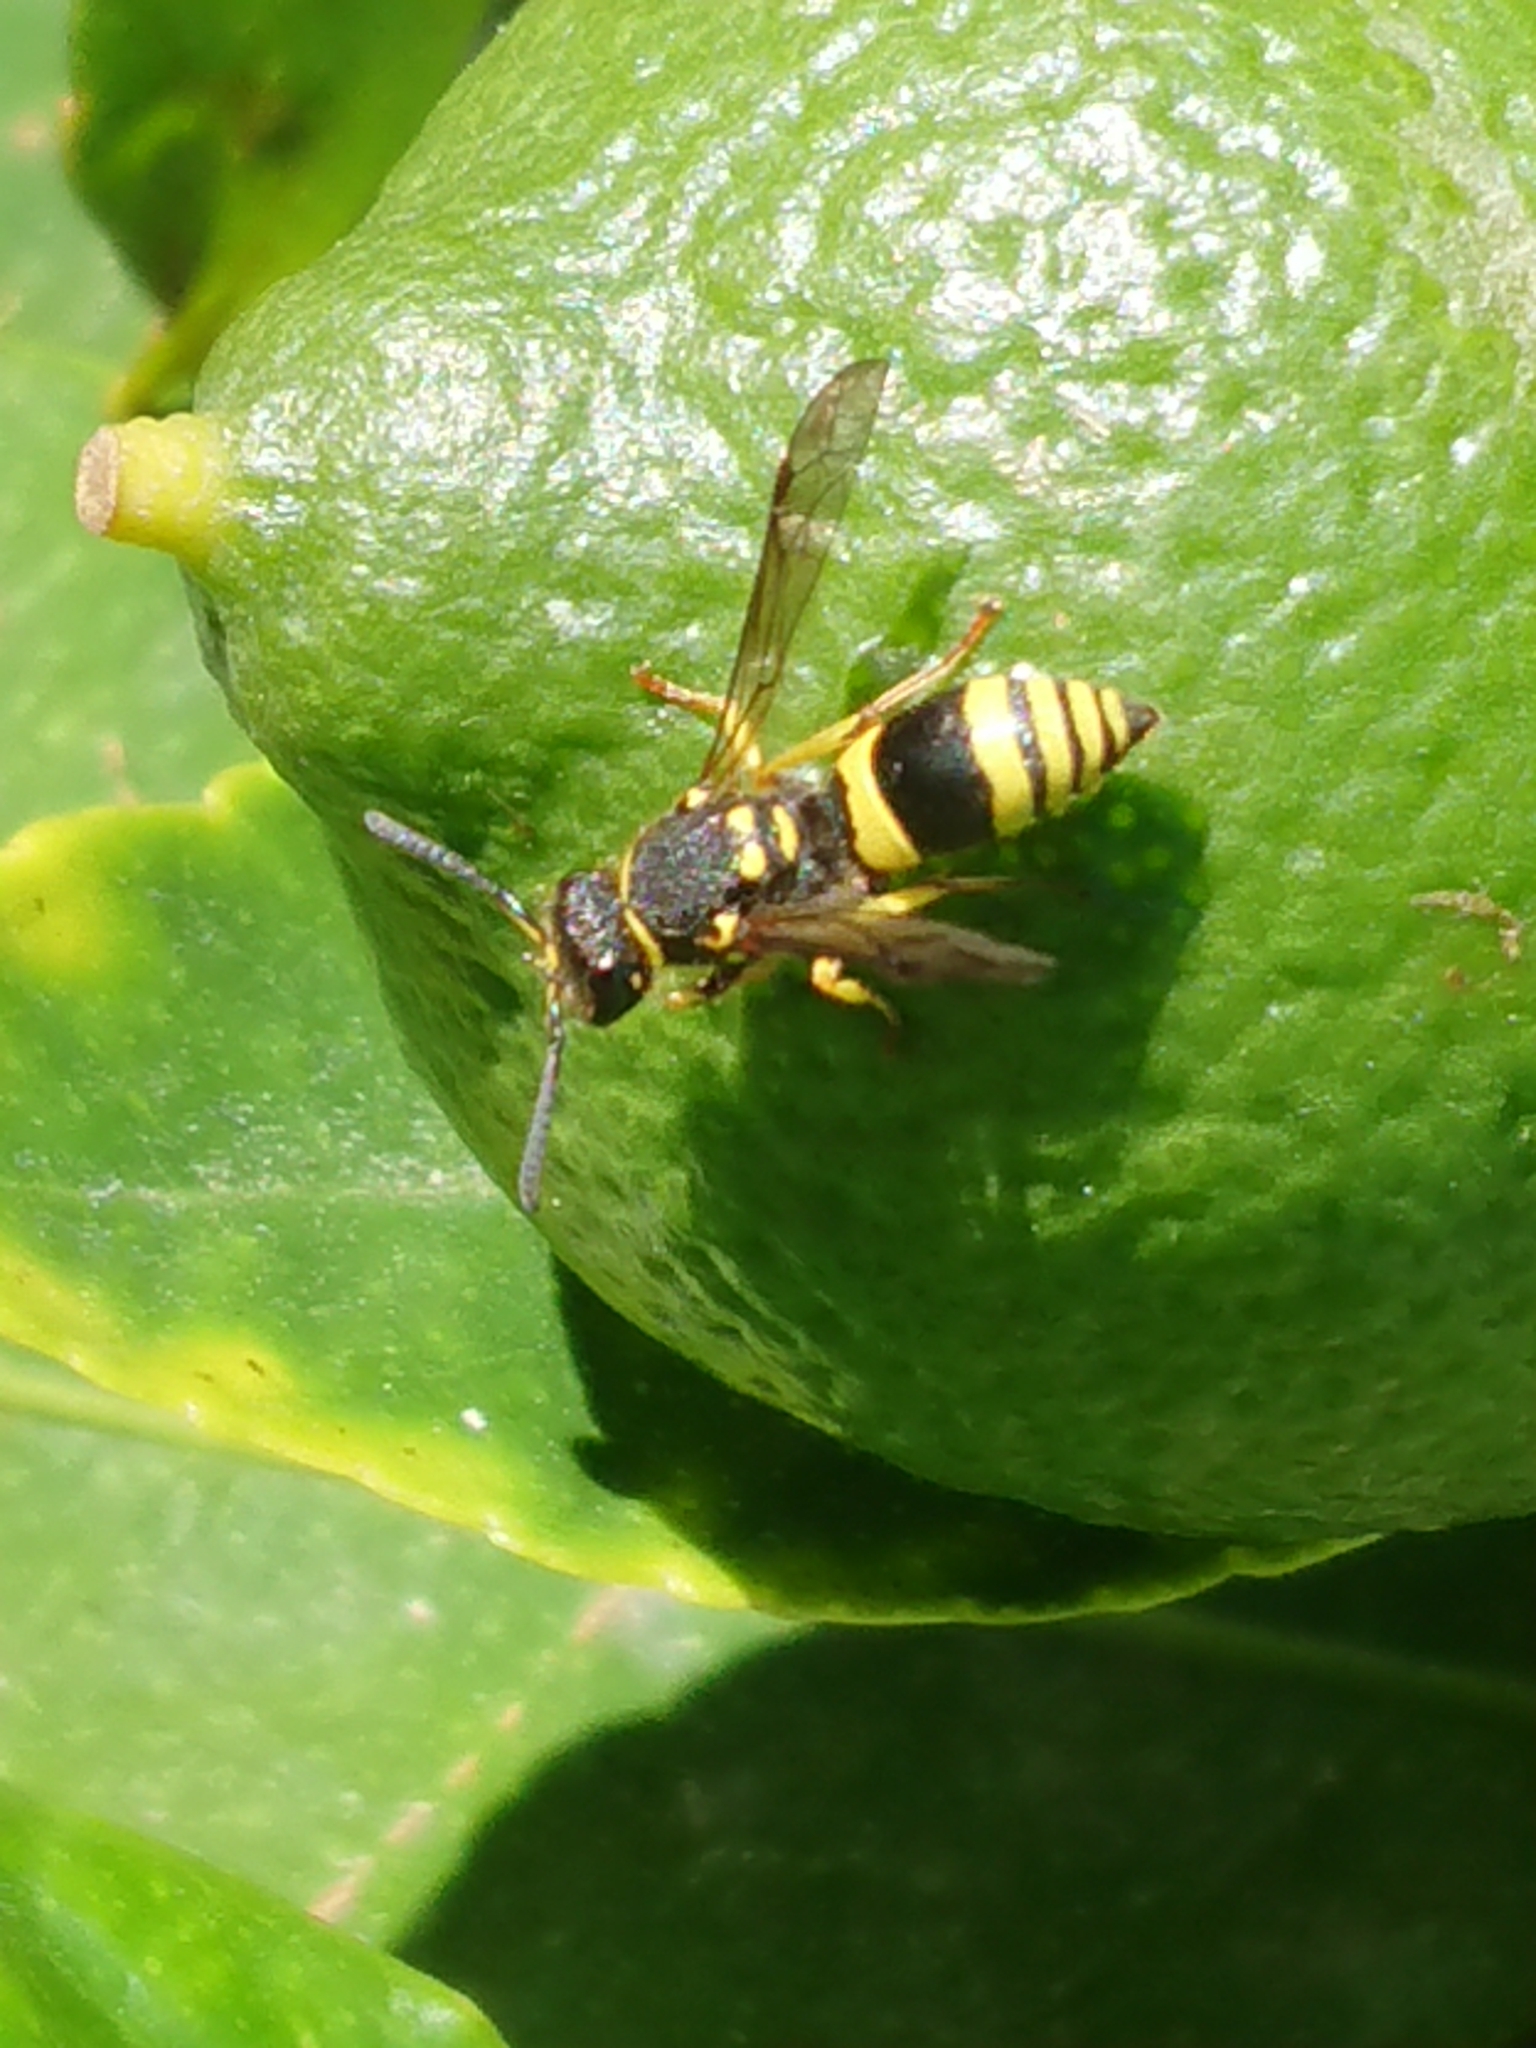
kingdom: Animalia
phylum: Arthropoda
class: Insecta
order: Hymenoptera
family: Vespidae
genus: Ancistrocerus
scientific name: Ancistrocerus gazella
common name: European tube wasp
